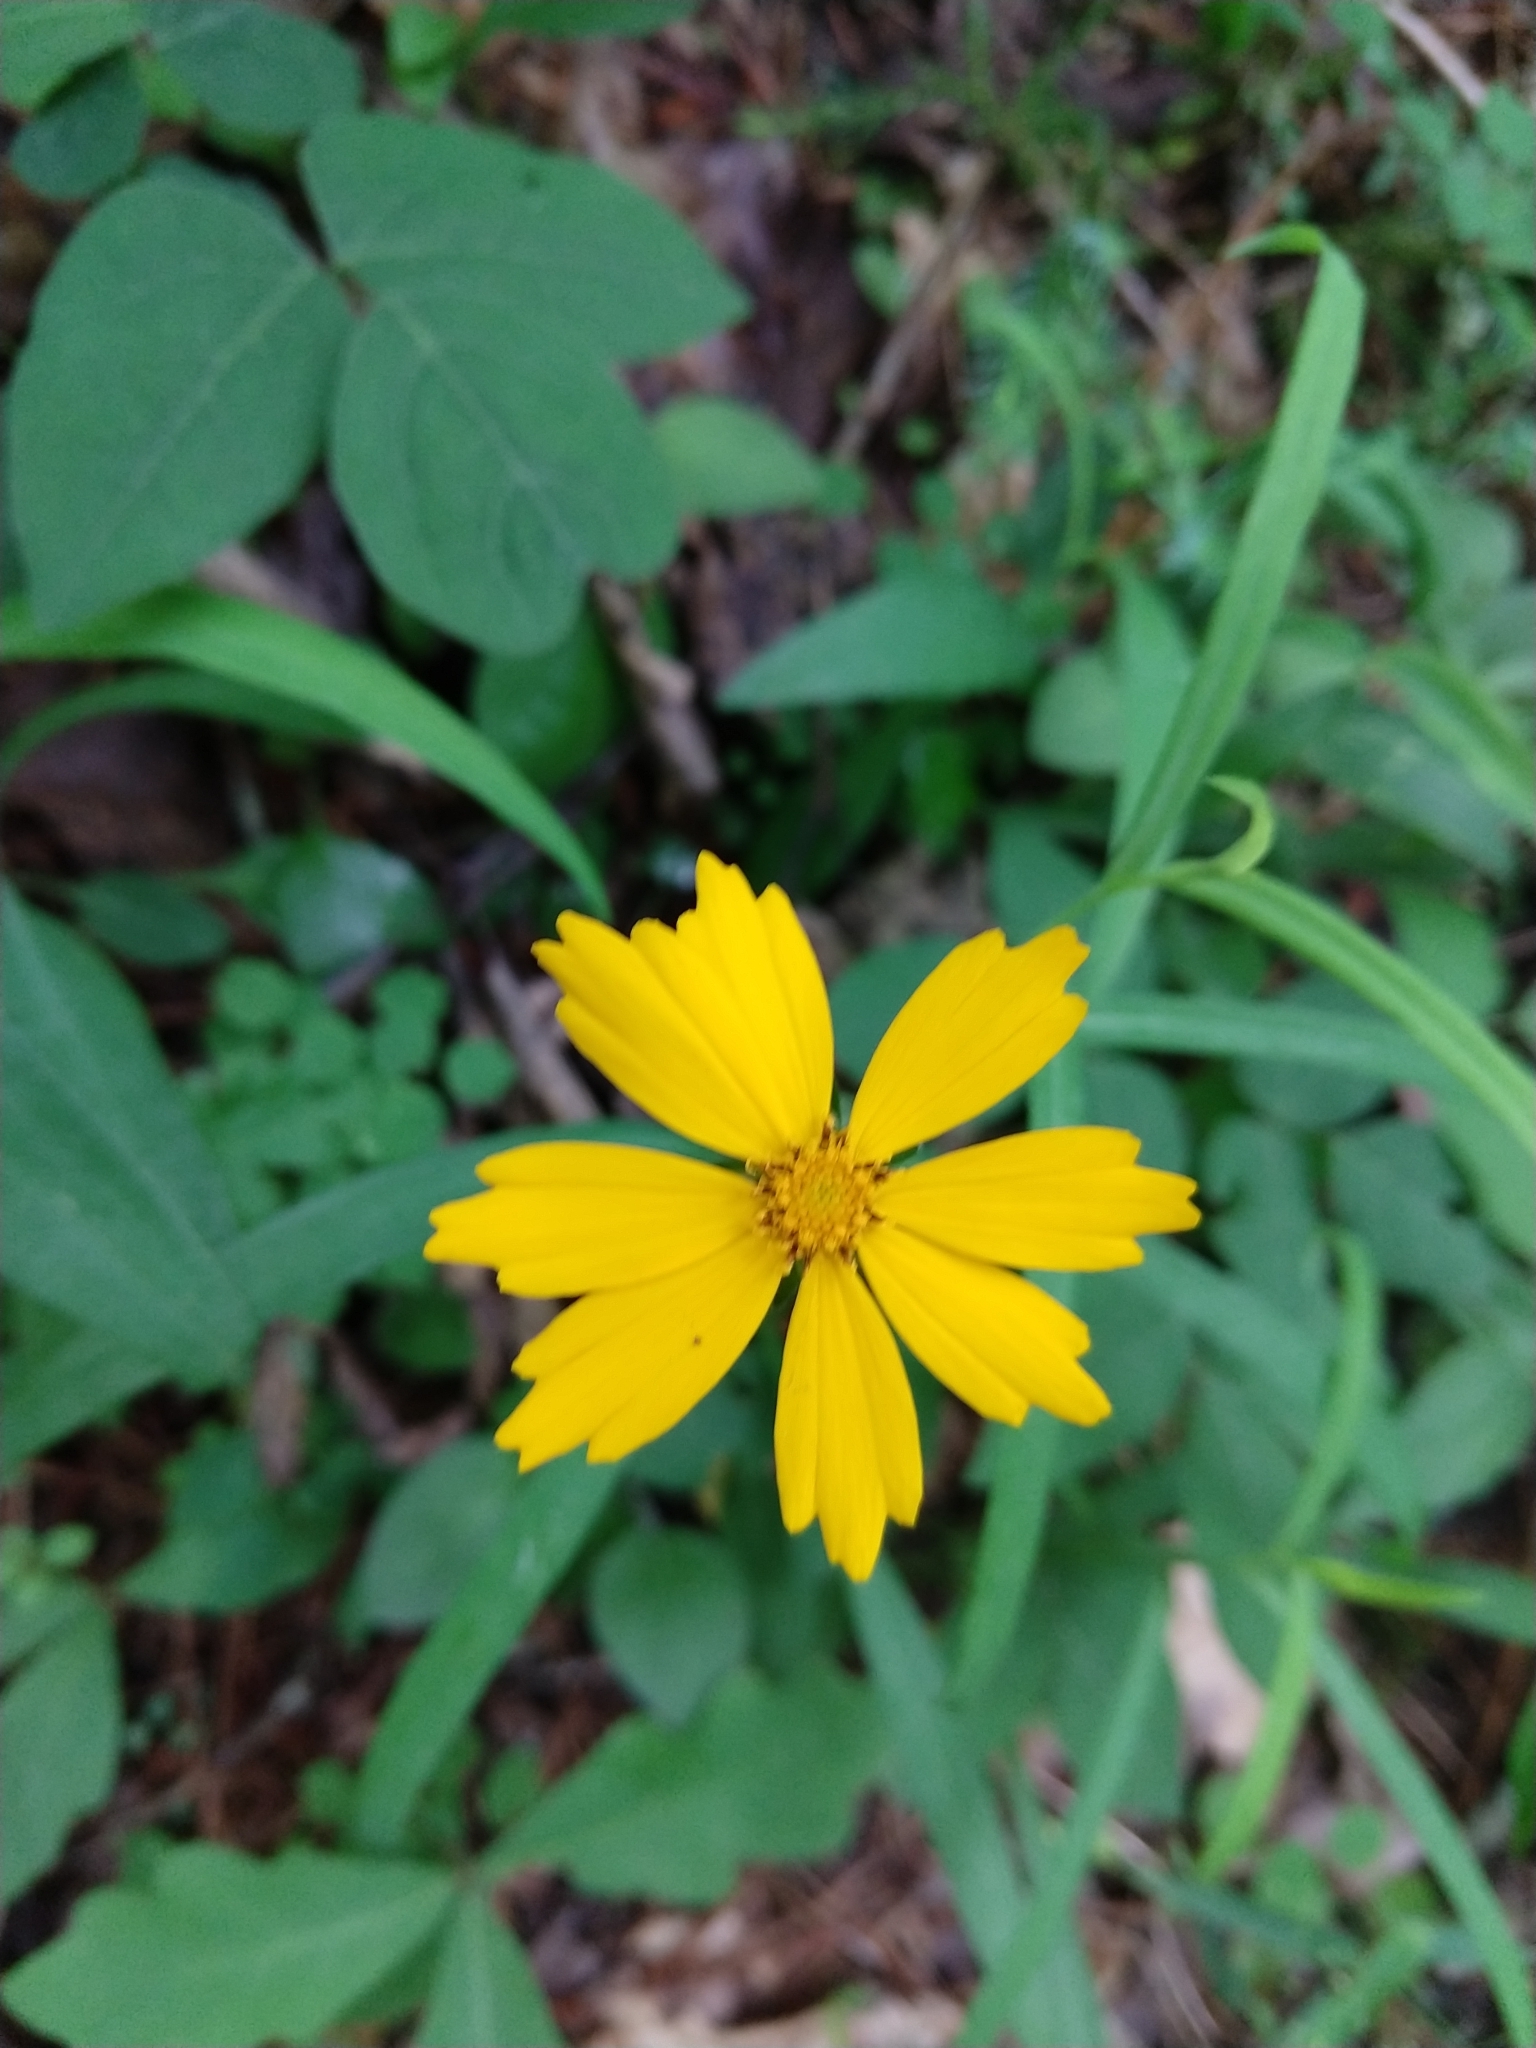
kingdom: Plantae
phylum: Tracheophyta
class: Magnoliopsida
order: Asterales
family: Asteraceae
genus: Coreopsis
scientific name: Coreopsis auriculata
